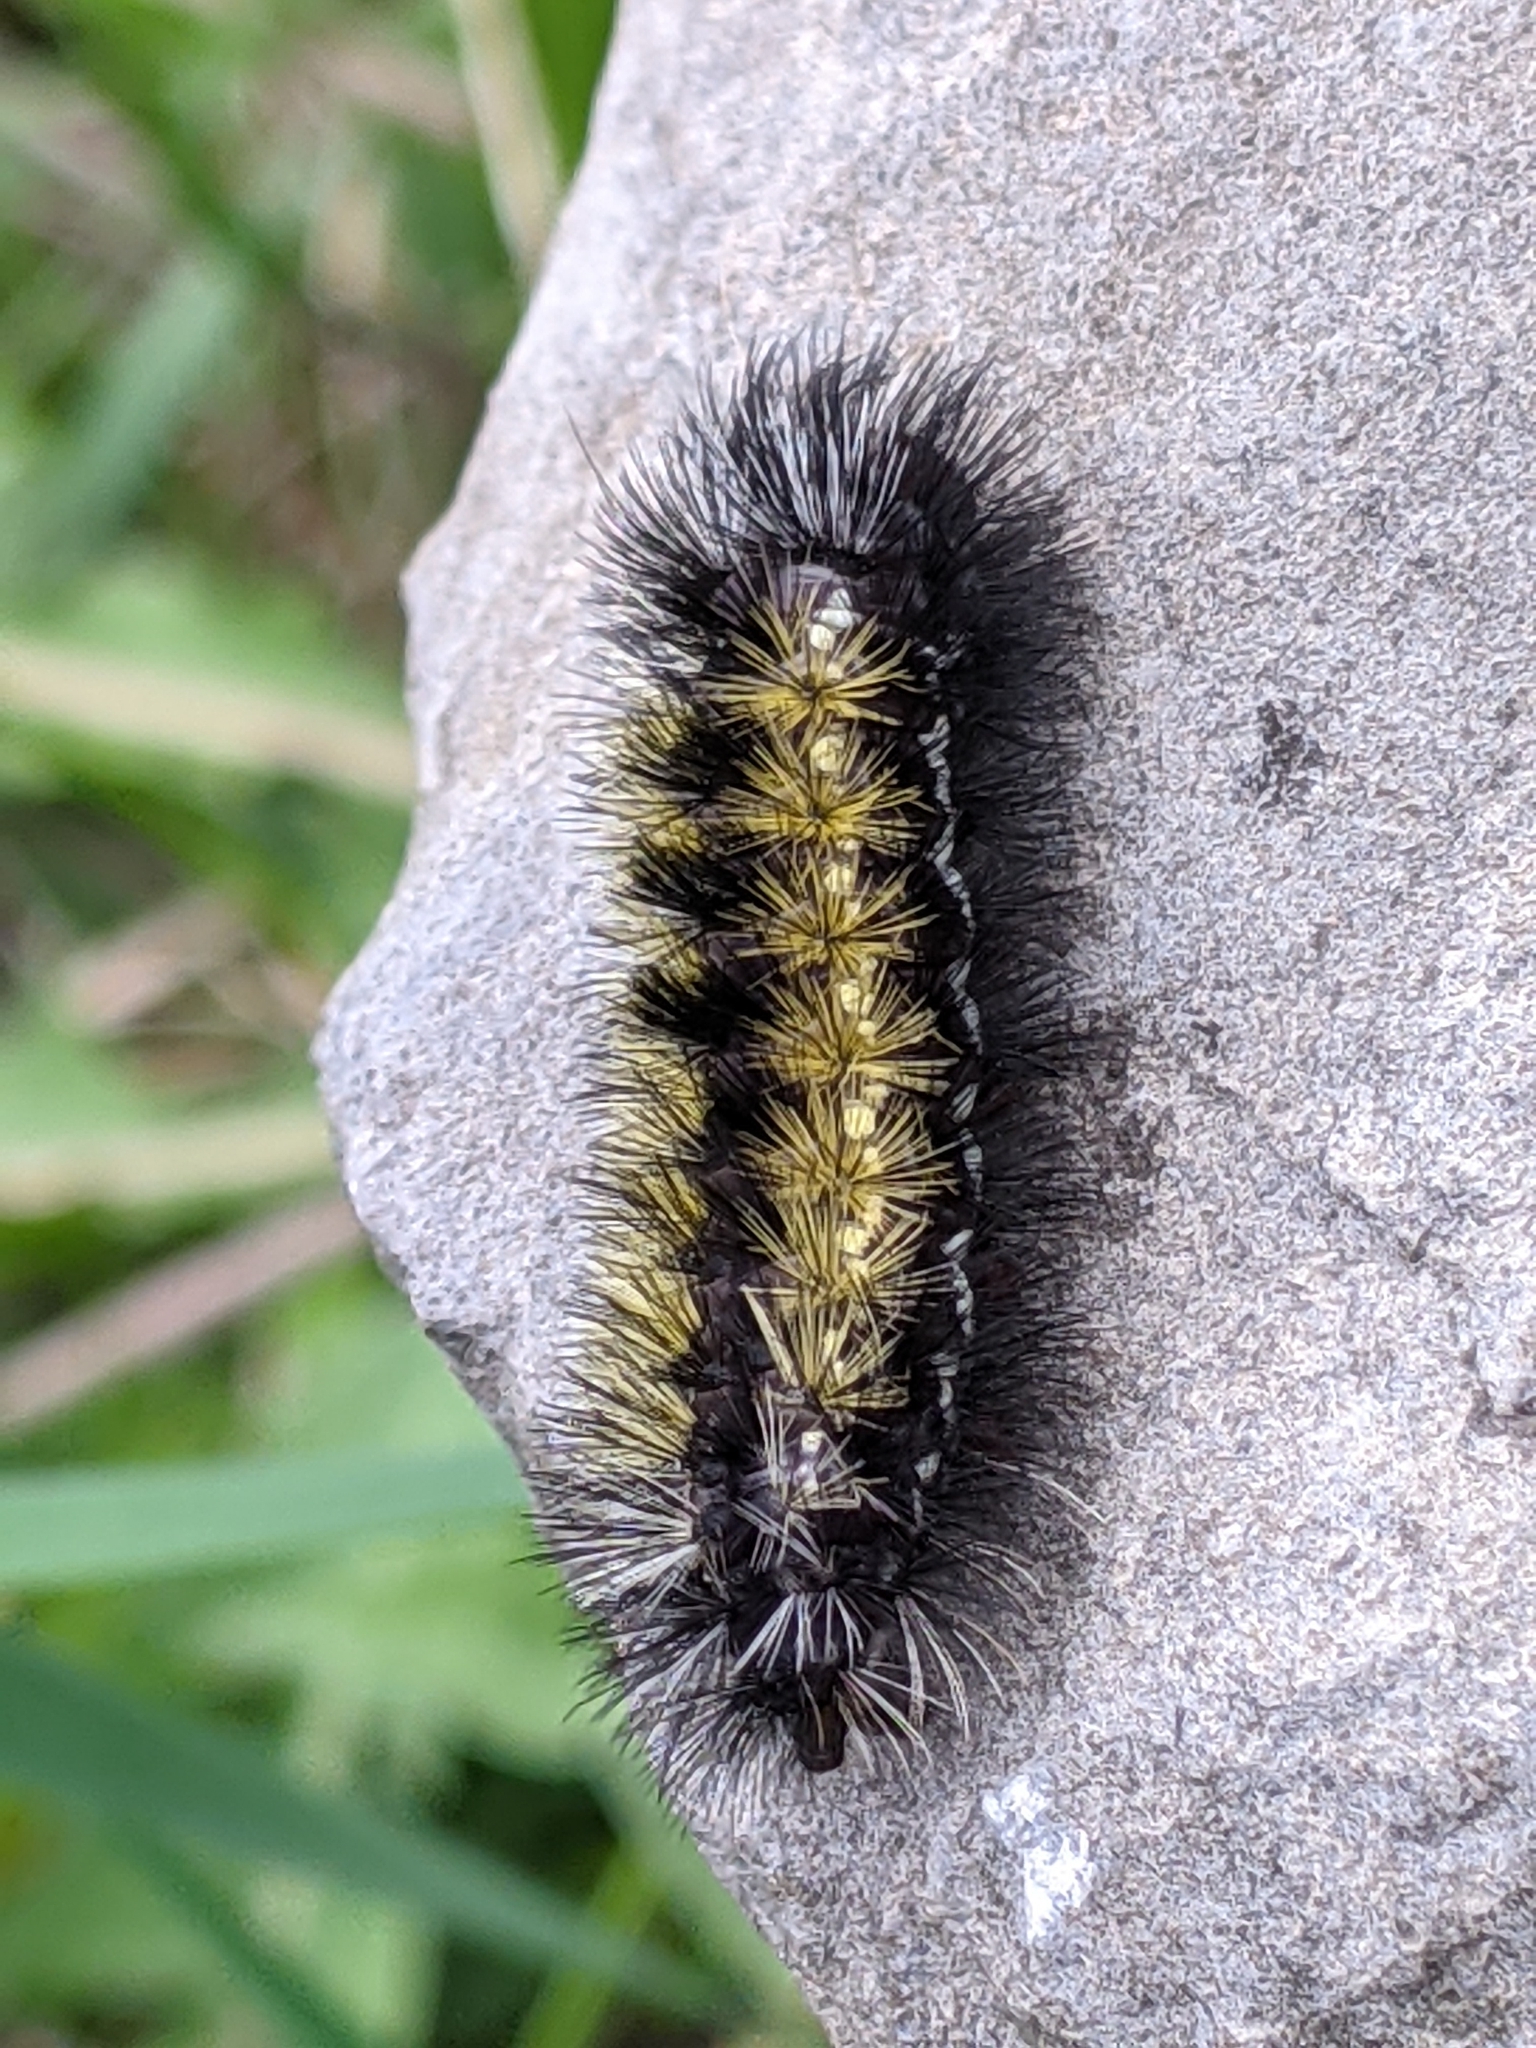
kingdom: Animalia
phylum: Arthropoda
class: Insecta
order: Lepidoptera
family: Erebidae
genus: Ctenucha
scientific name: Ctenucha virginica
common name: Virginia ctenucha moth
